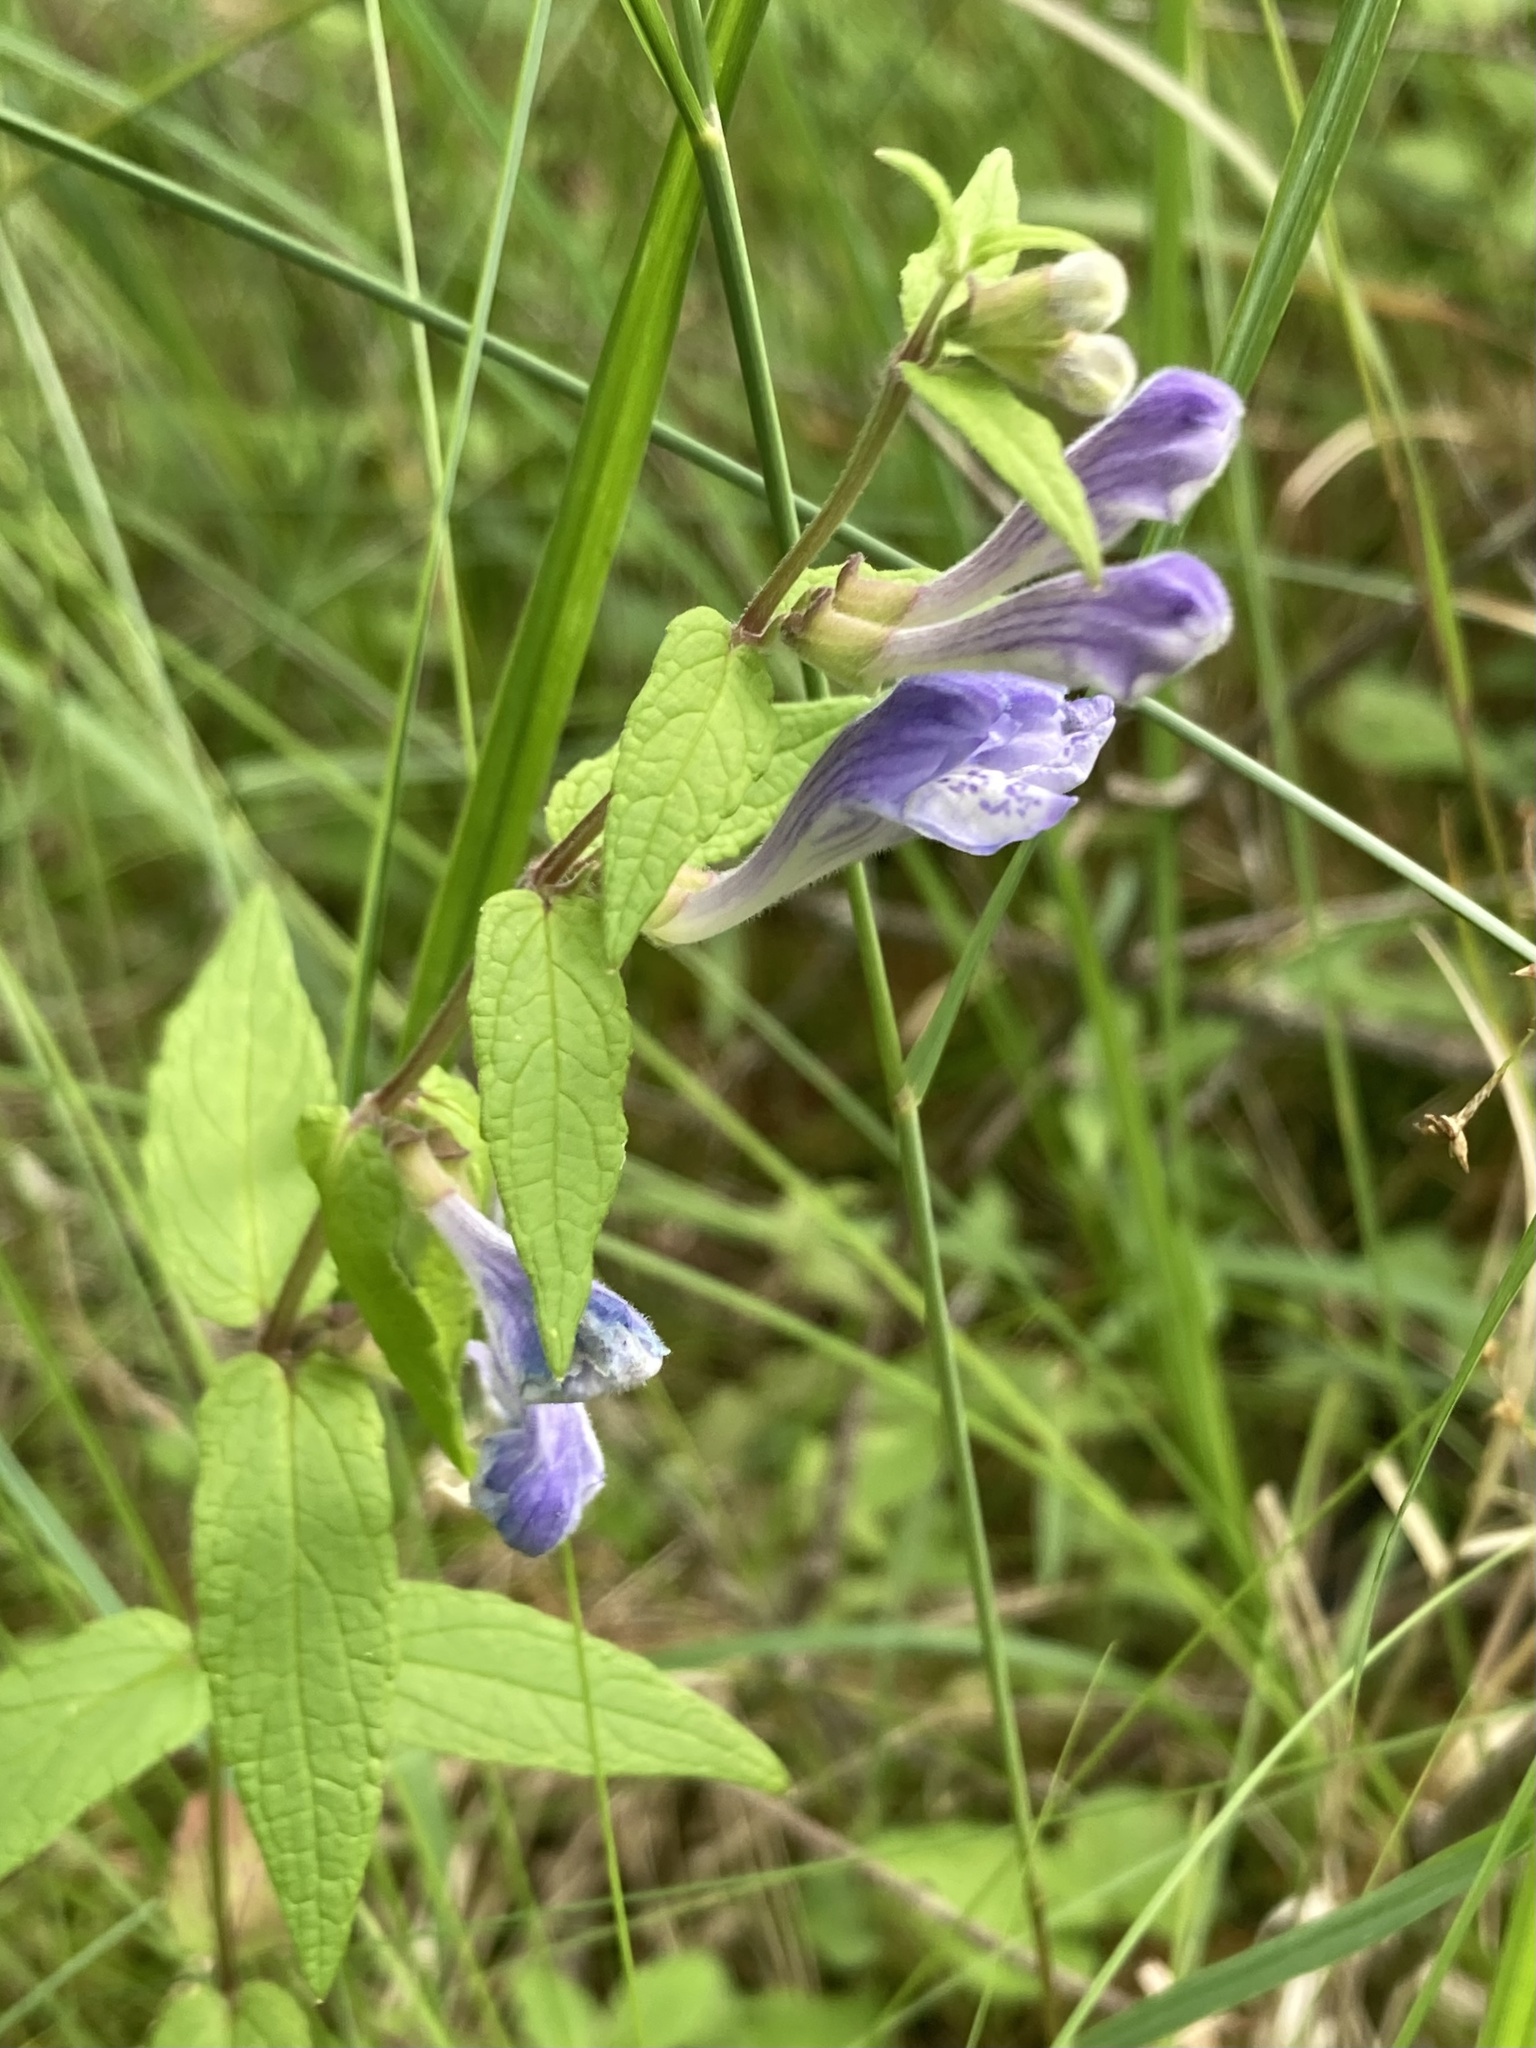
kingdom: Plantae
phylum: Tracheophyta
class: Magnoliopsida
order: Lamiales
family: Lamiaceae
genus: Scutellaria
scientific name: Scutellaria galericulata
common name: Skullcap
